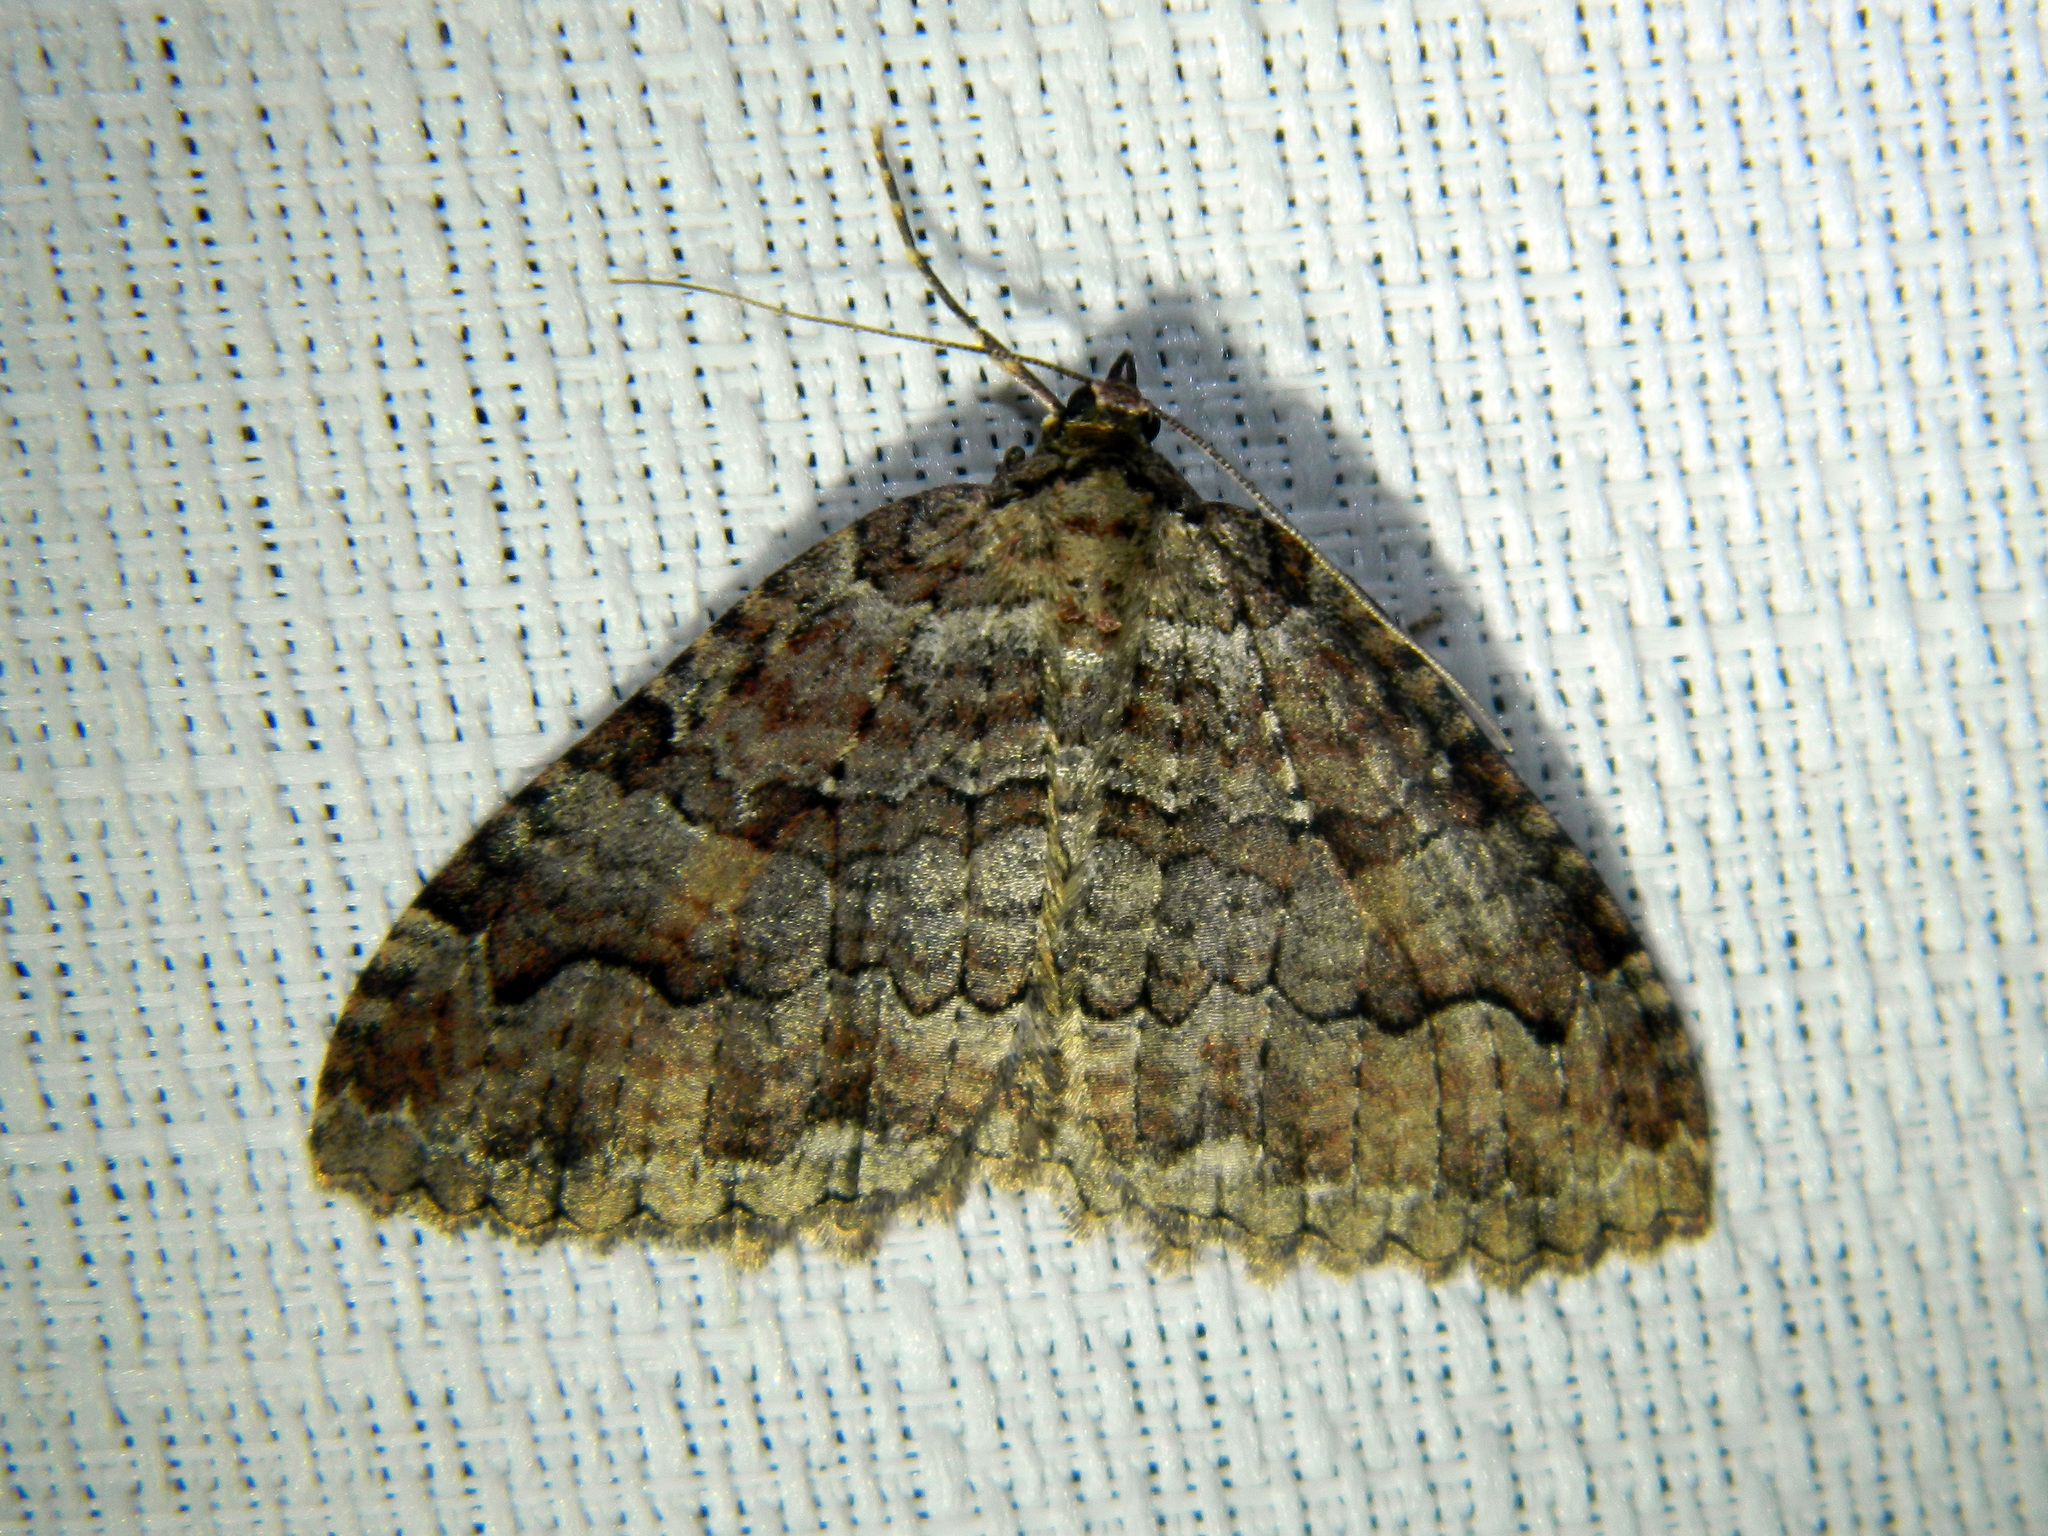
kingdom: Animalia
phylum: Arthropoda
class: Insecta
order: Lepidoptera
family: Geometridae
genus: Triphosa
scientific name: Triphosa haesitata
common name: Tissue moth
